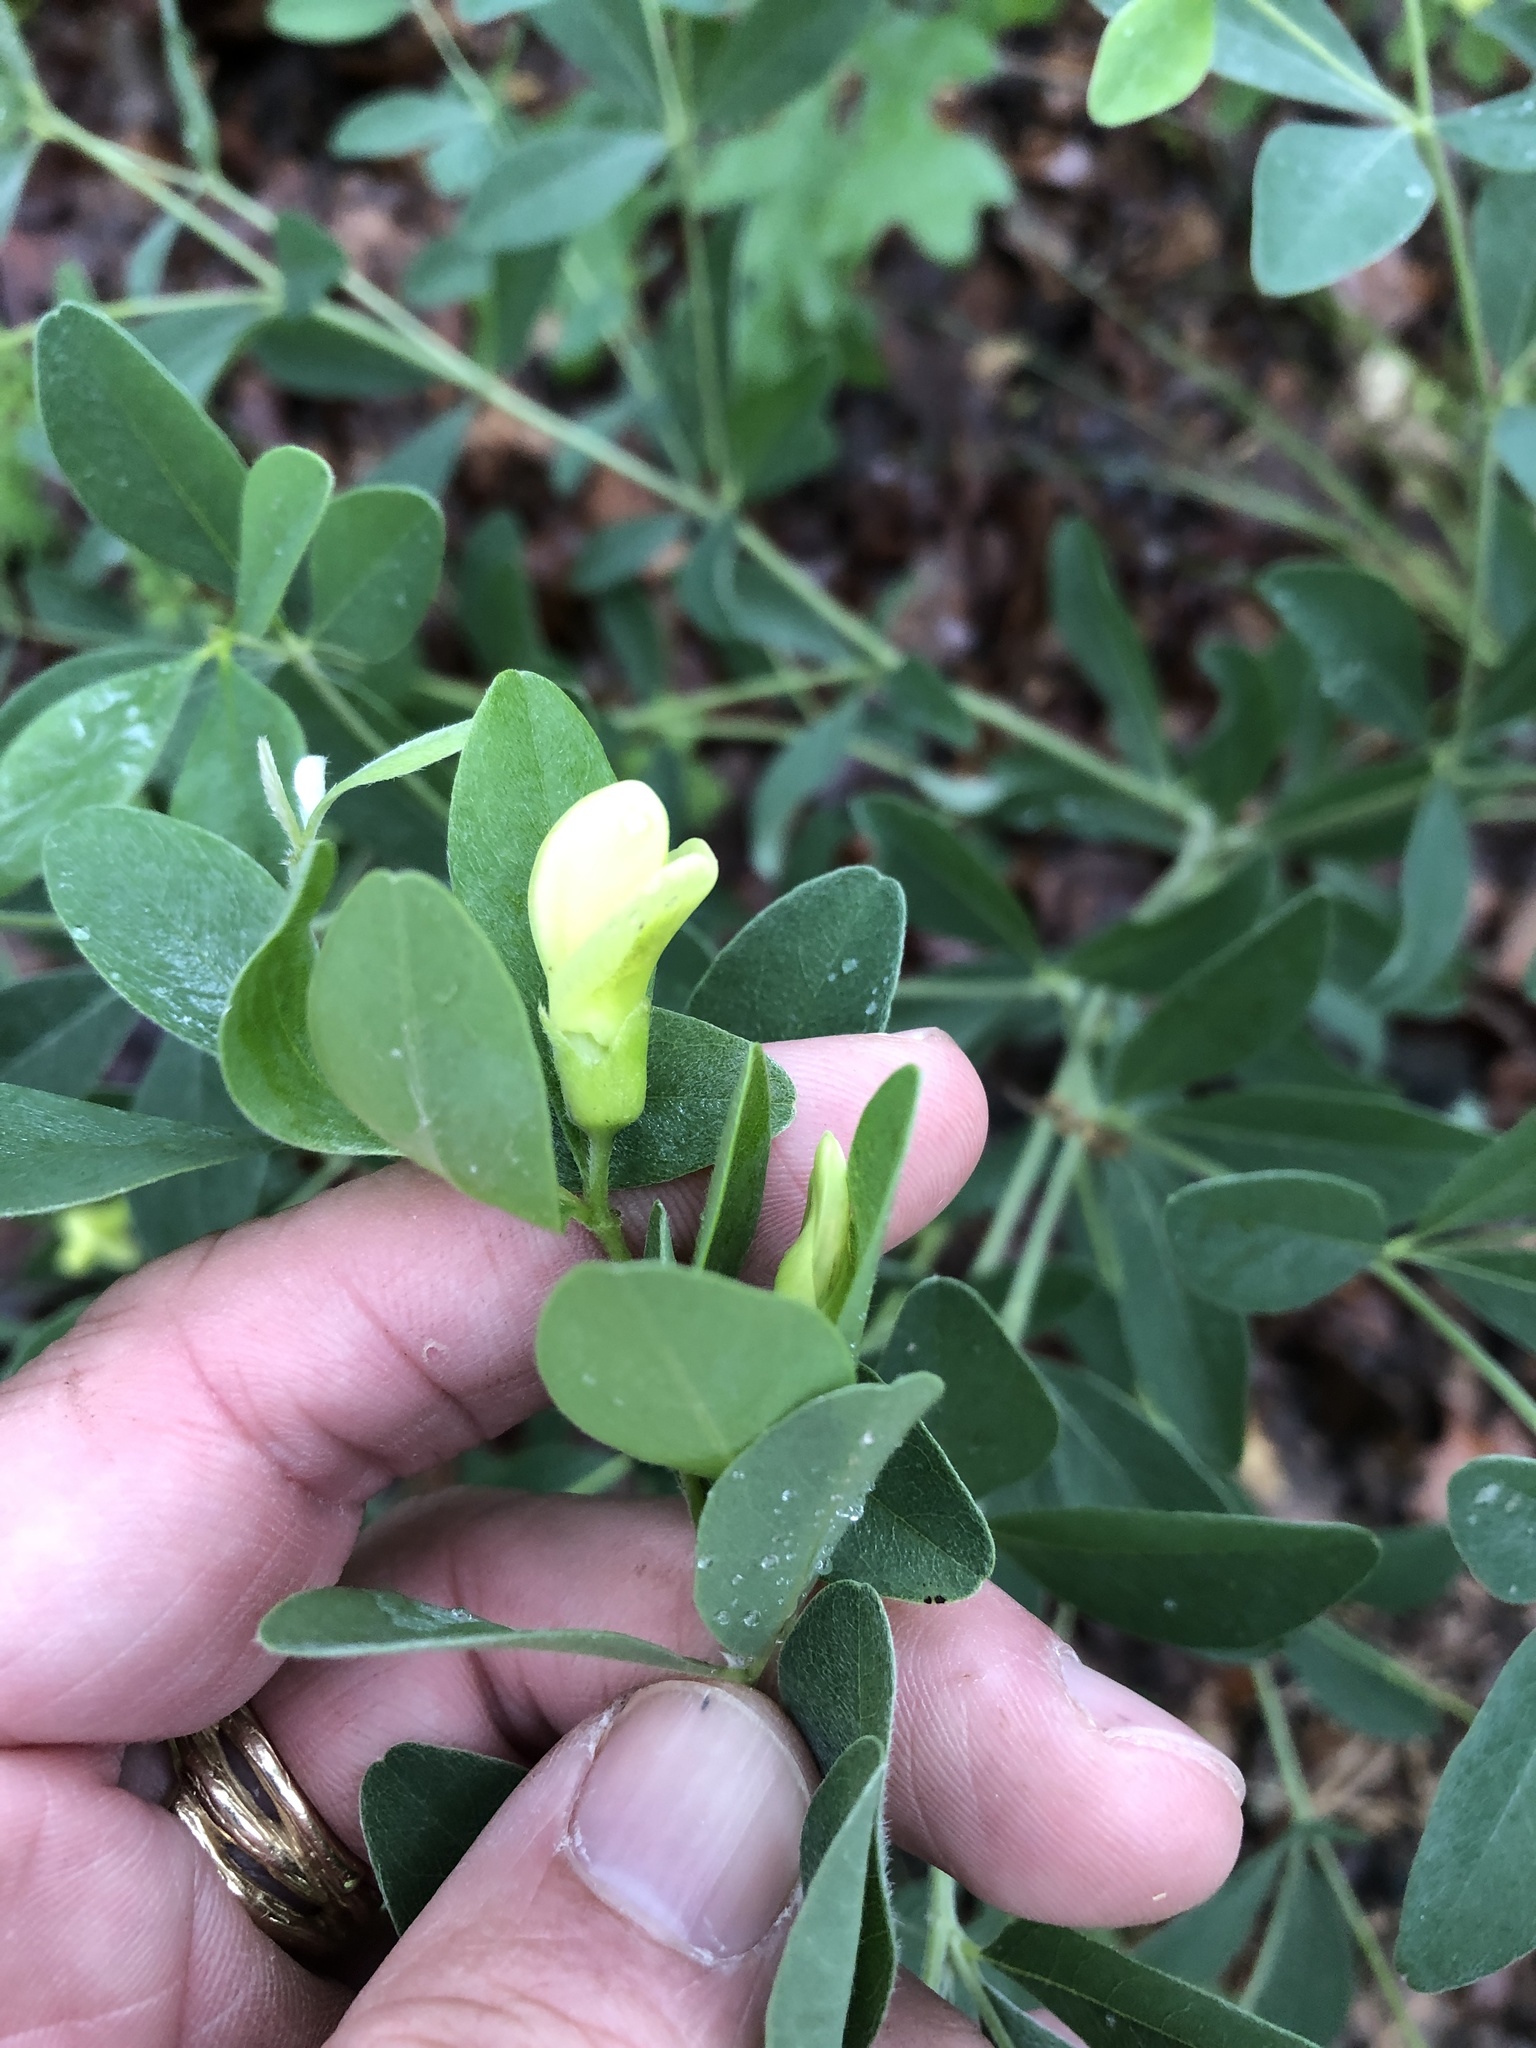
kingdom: Plantae
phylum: Tracheophyta
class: Magnoliopsida
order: Fabales
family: Fabaceae
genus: Baptisia
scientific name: Baptisia nuttalliana
